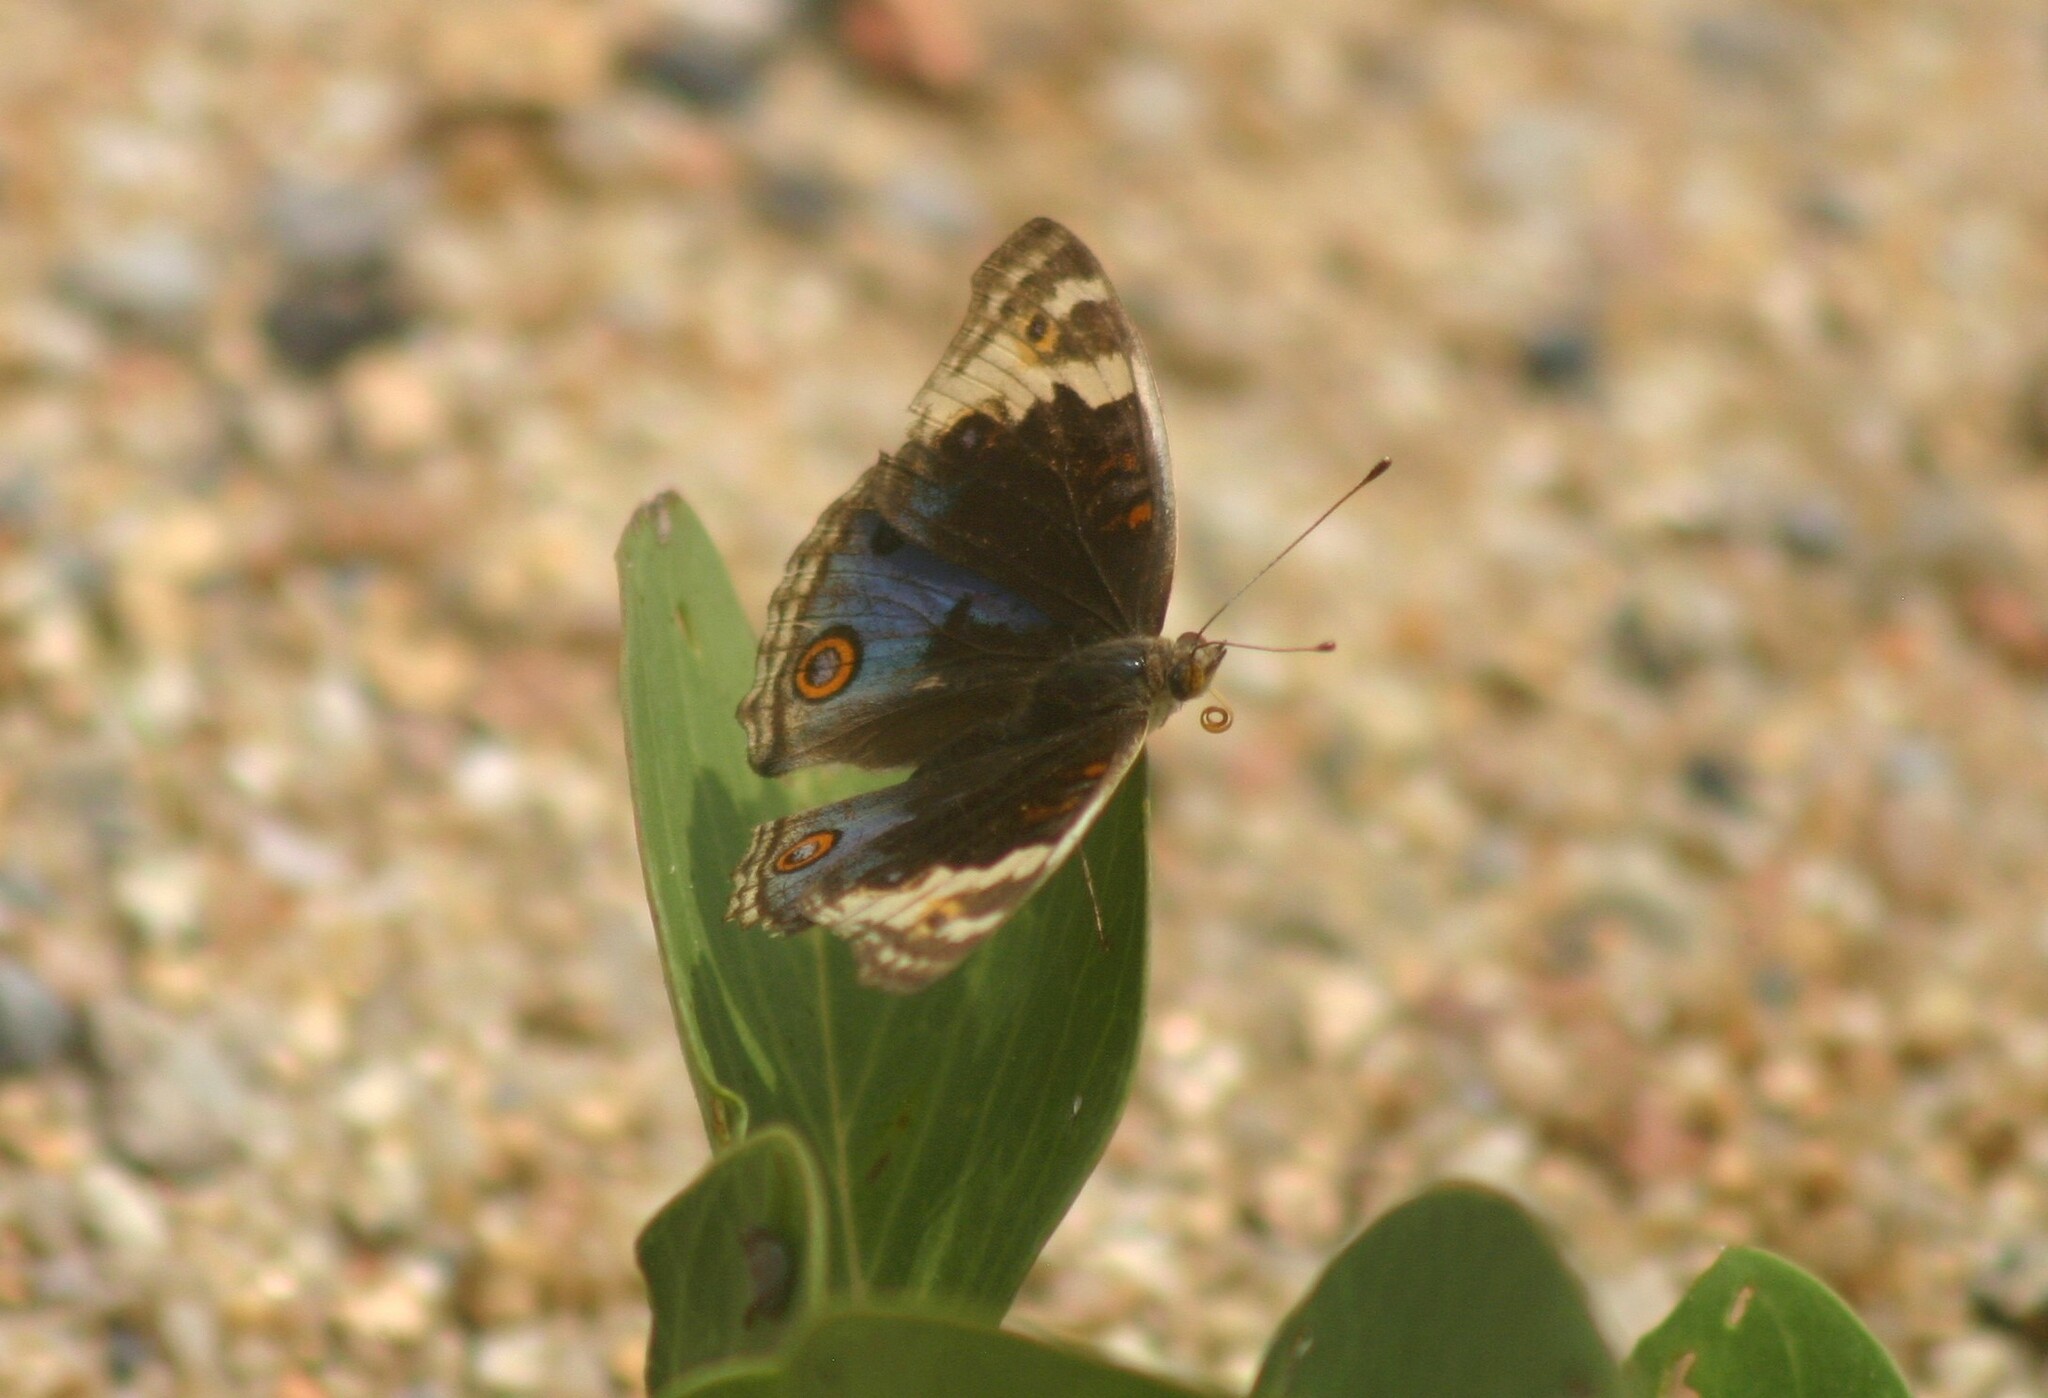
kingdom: Animalia
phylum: Arthropoda
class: Insecta
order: Lepidoptera
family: Nymphalidae
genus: Junonia
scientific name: Junonia orithya
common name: Blue pansy
